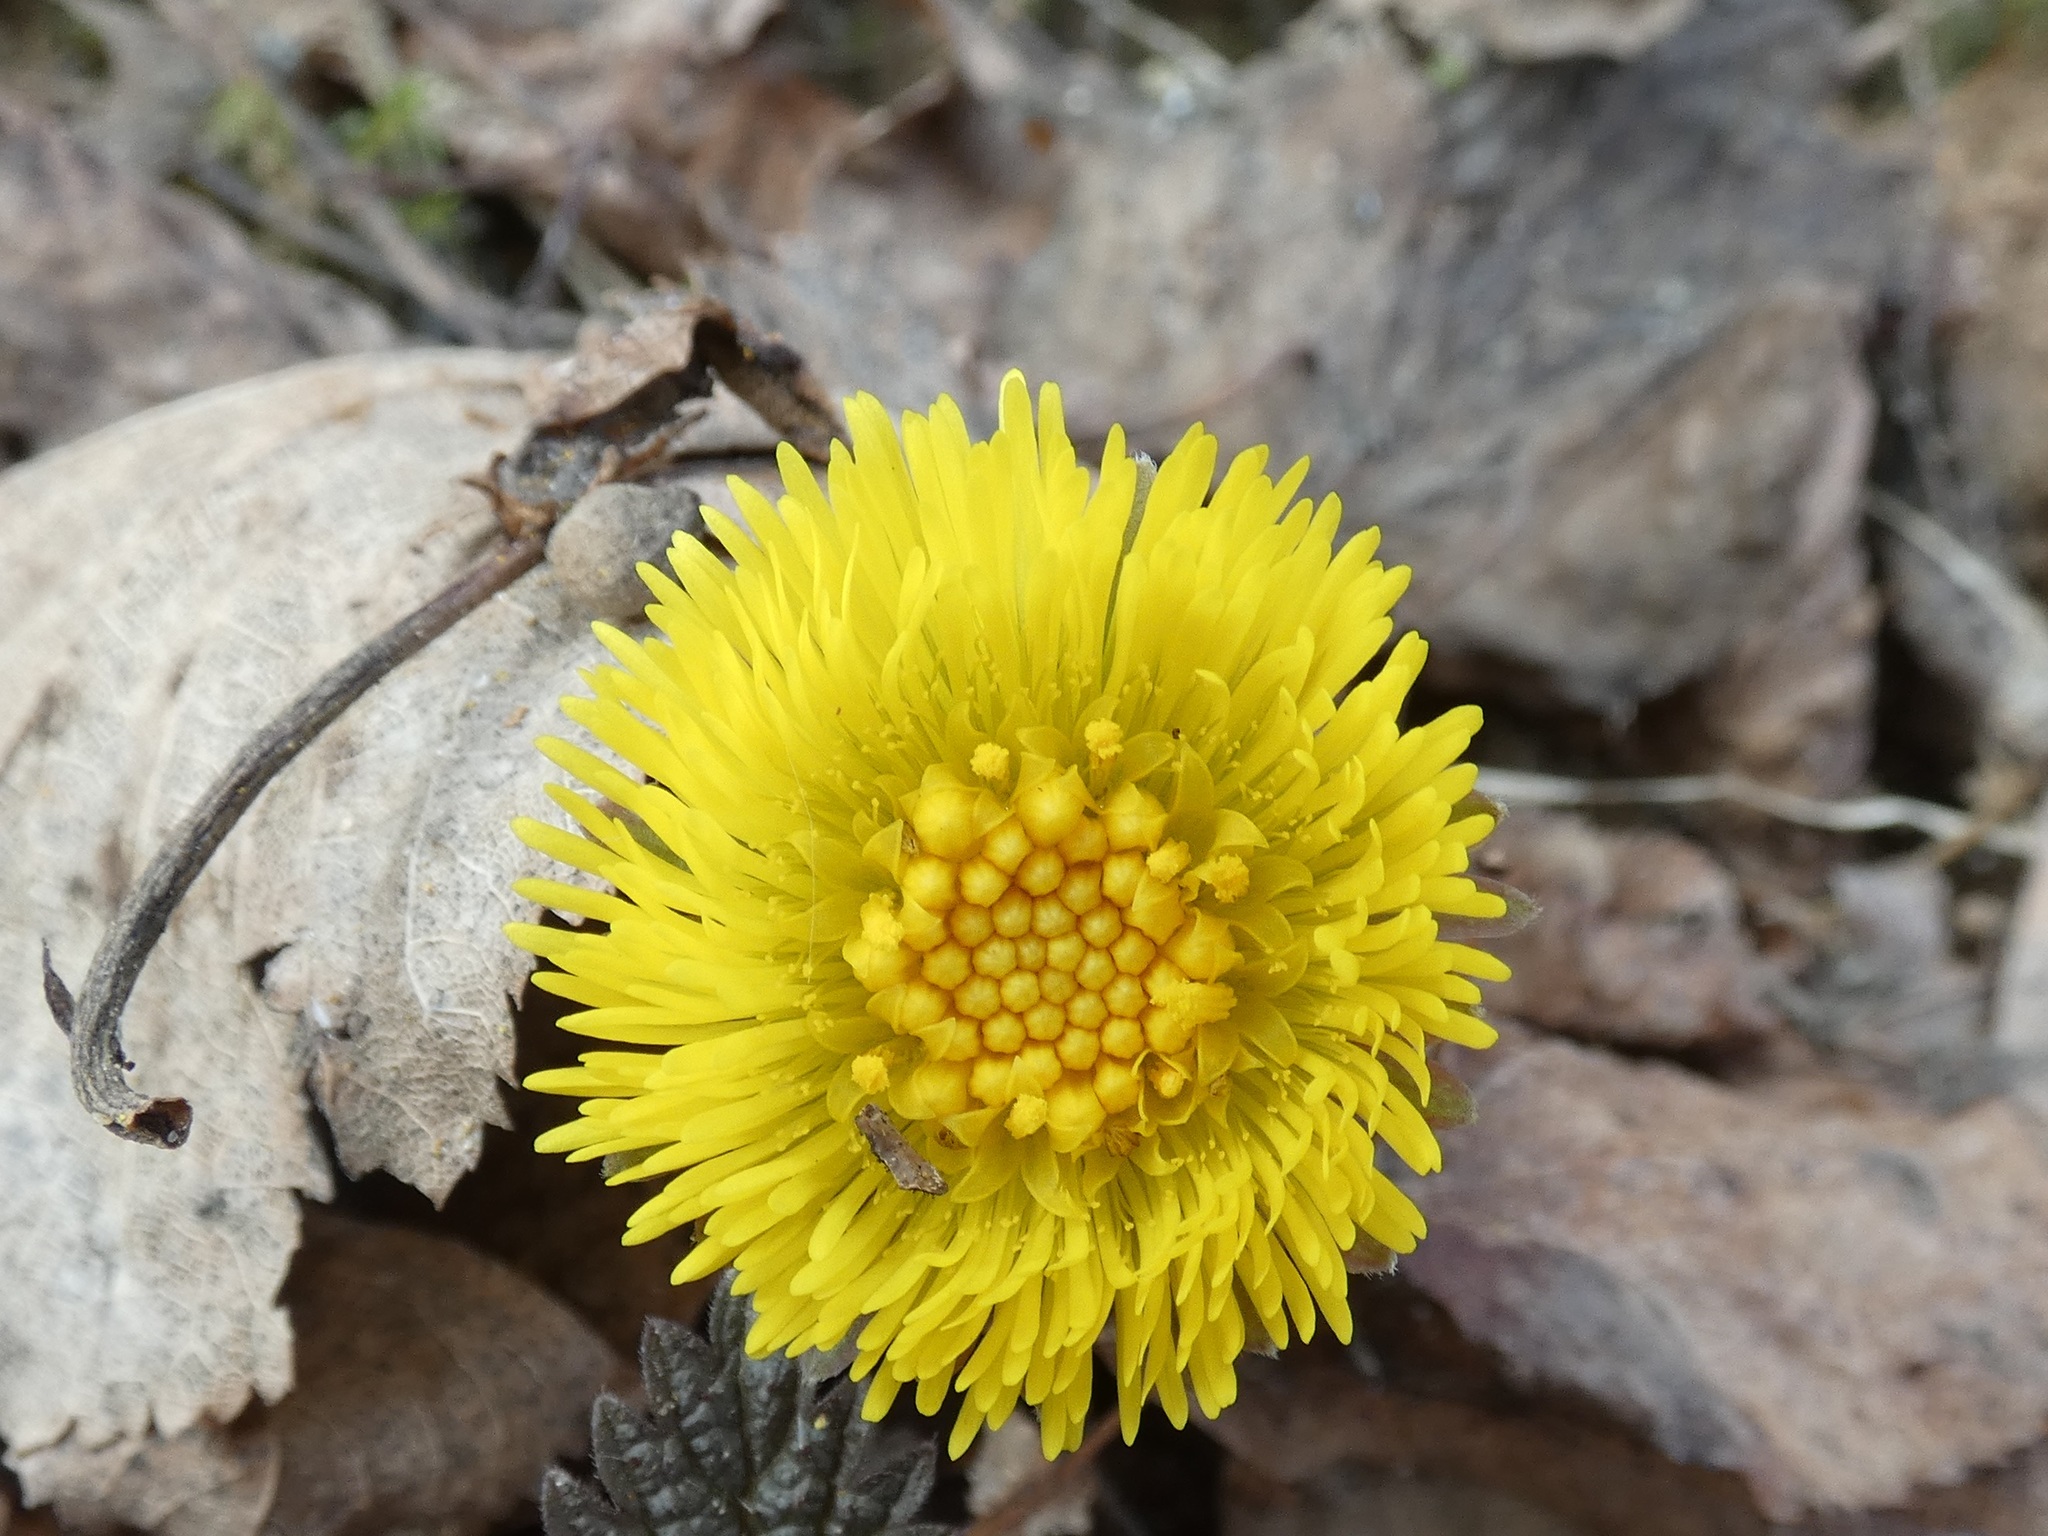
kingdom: Plantae
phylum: Tracheophyta
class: Magnoliopsida
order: Asterales
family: Asteraceae
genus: Tussilago
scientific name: Tussilago farfara
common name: Coltsfoot
